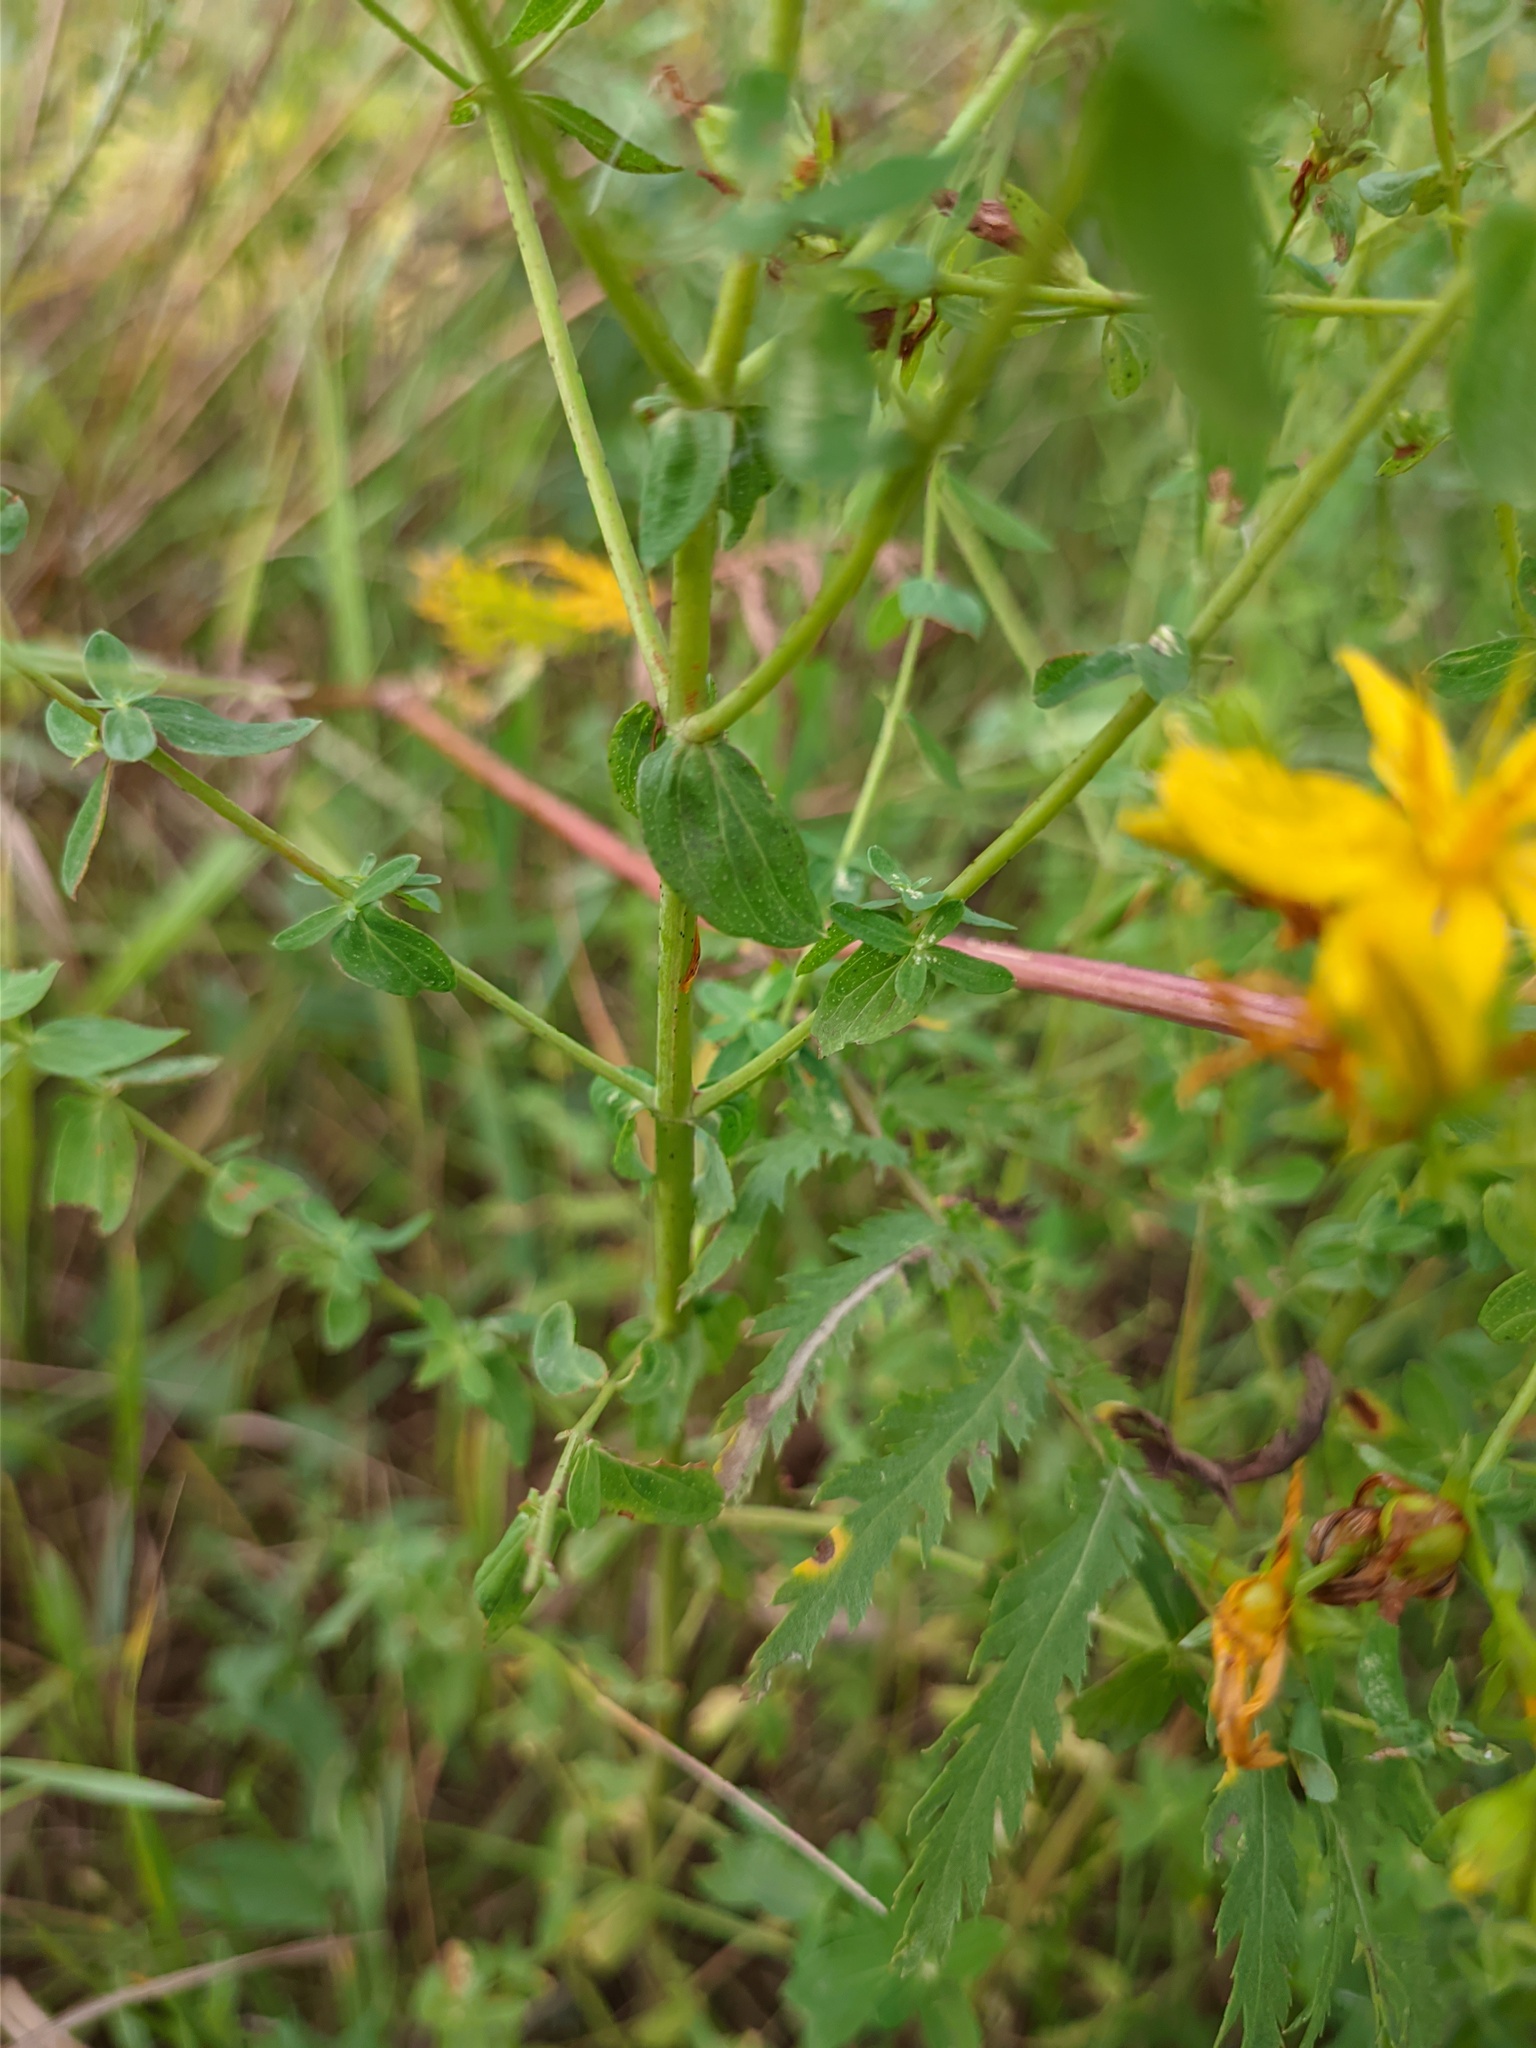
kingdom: Plantae
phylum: Tracheophyta
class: Magnoliopsida
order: Malpighiales
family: Hypericaceae
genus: Hypericum
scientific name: Hypericum perforatum
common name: Common st. johnswort
